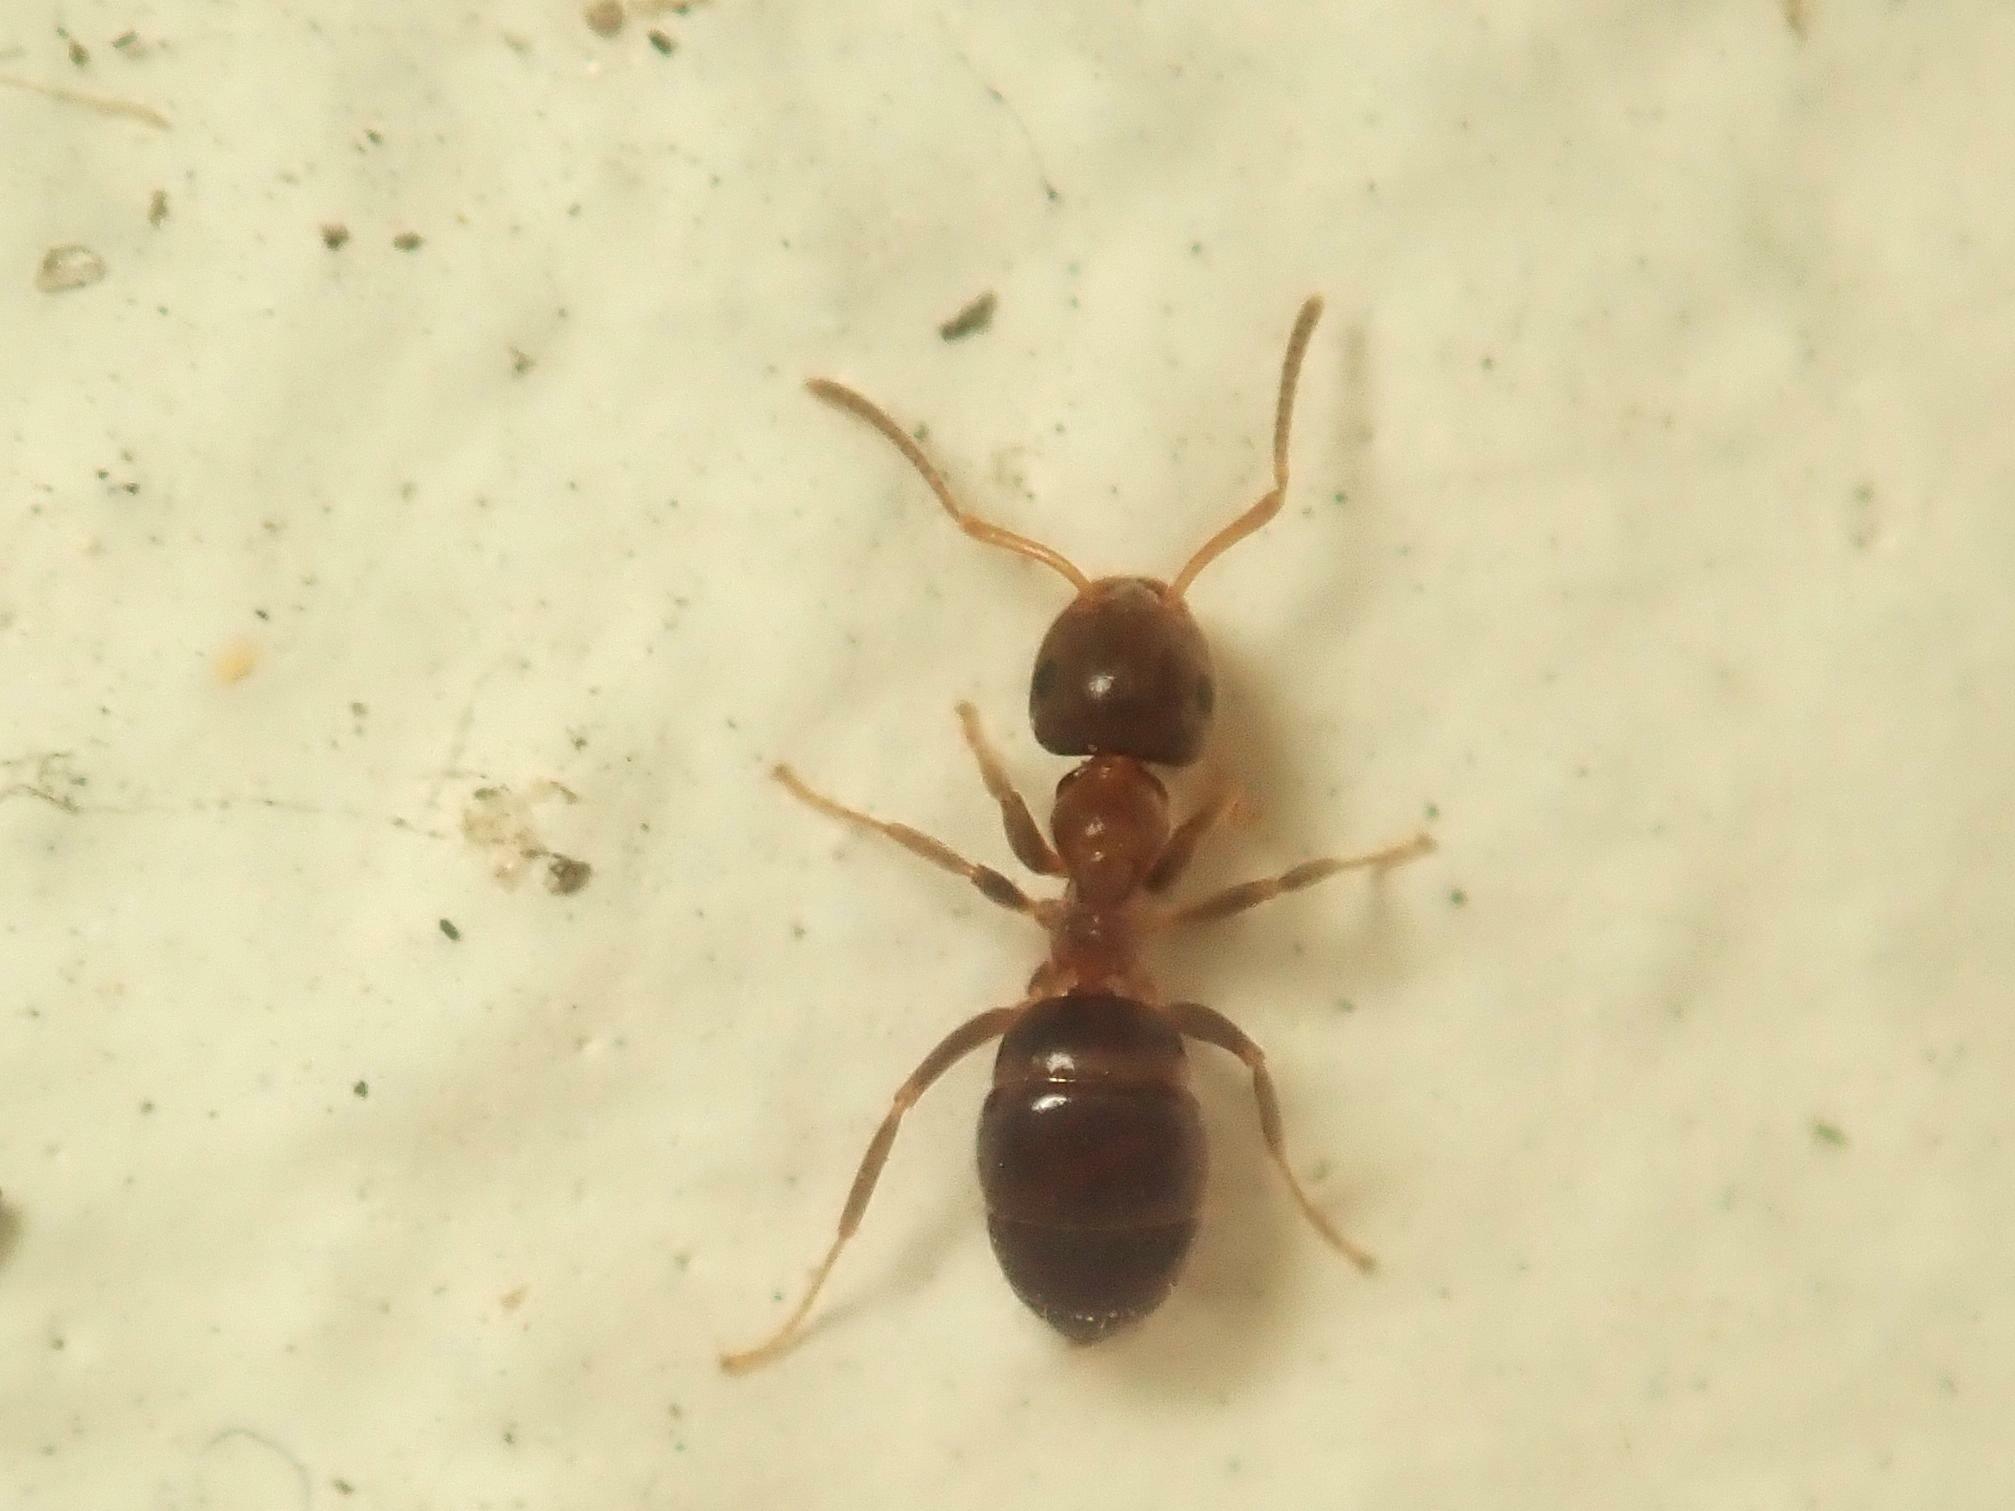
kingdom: Animalia
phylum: Arthropoda
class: Insecta
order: Hymenoptera
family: Formicidae
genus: Lasius
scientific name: Lasius brunneus
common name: Brown ant
